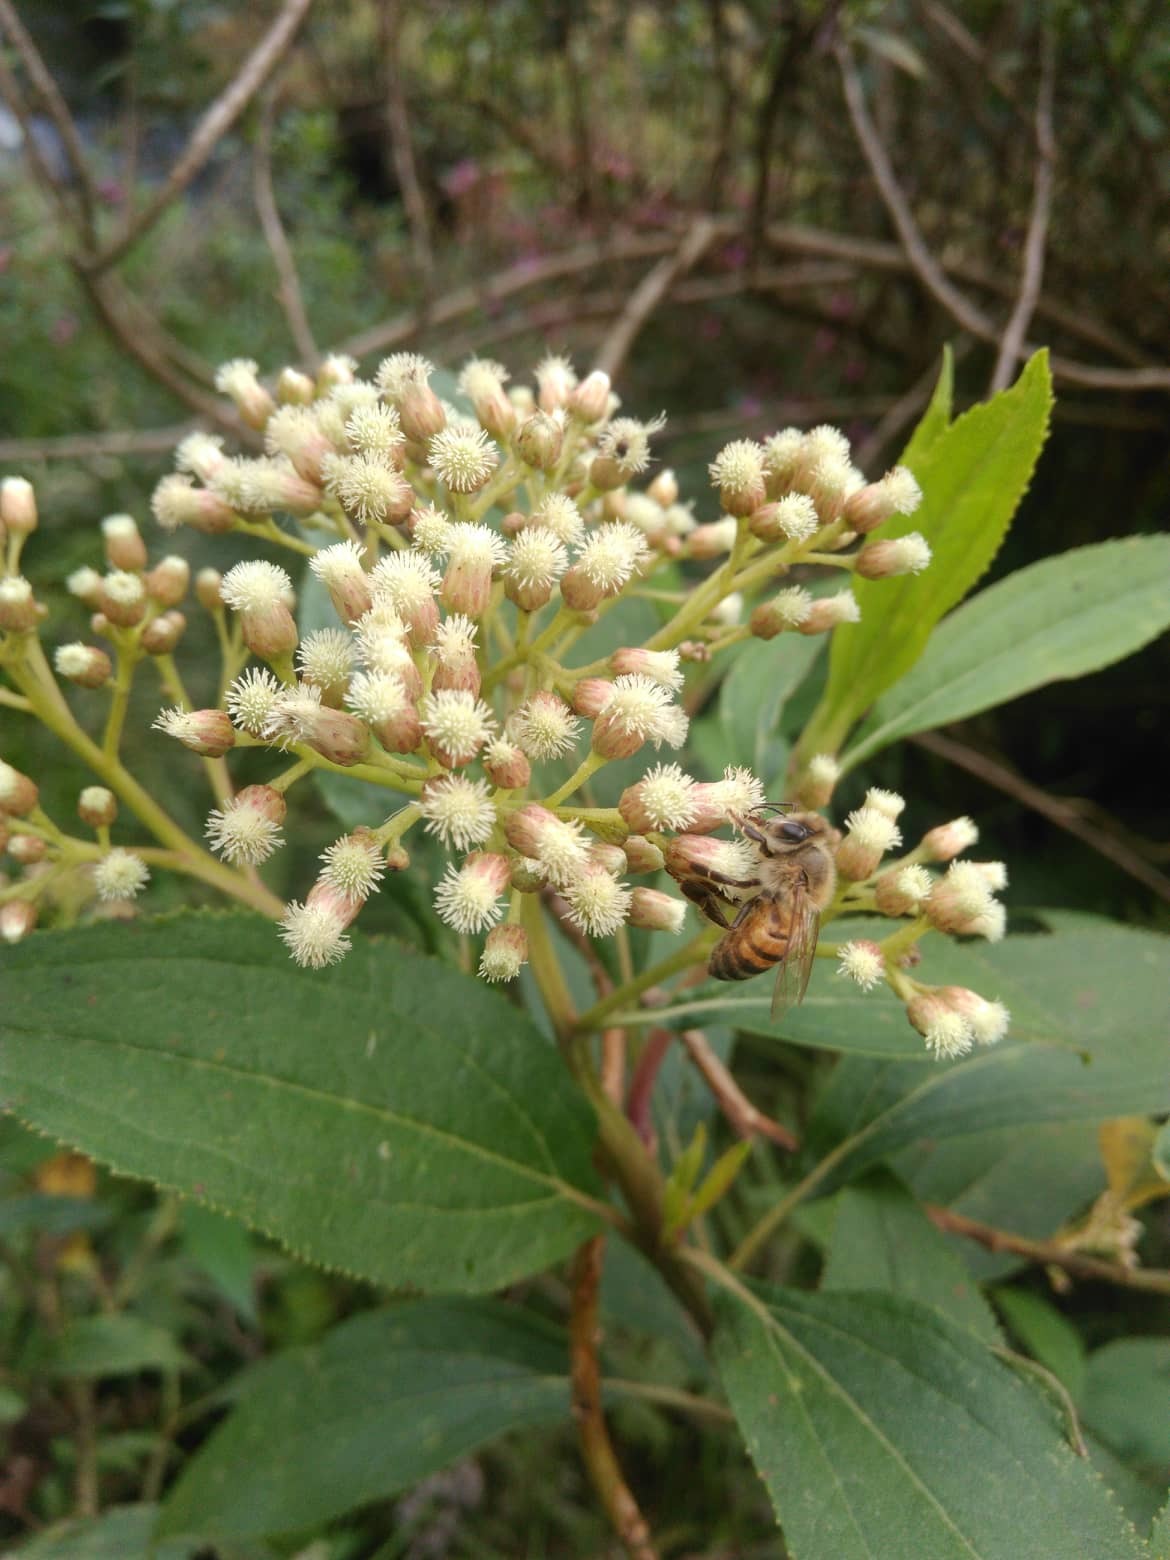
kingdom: Plantae
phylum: Tracheophyta
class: Magnoliopsida
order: Asterales
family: Asteraceae
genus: Baccharis
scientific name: Baccharis latifolia
